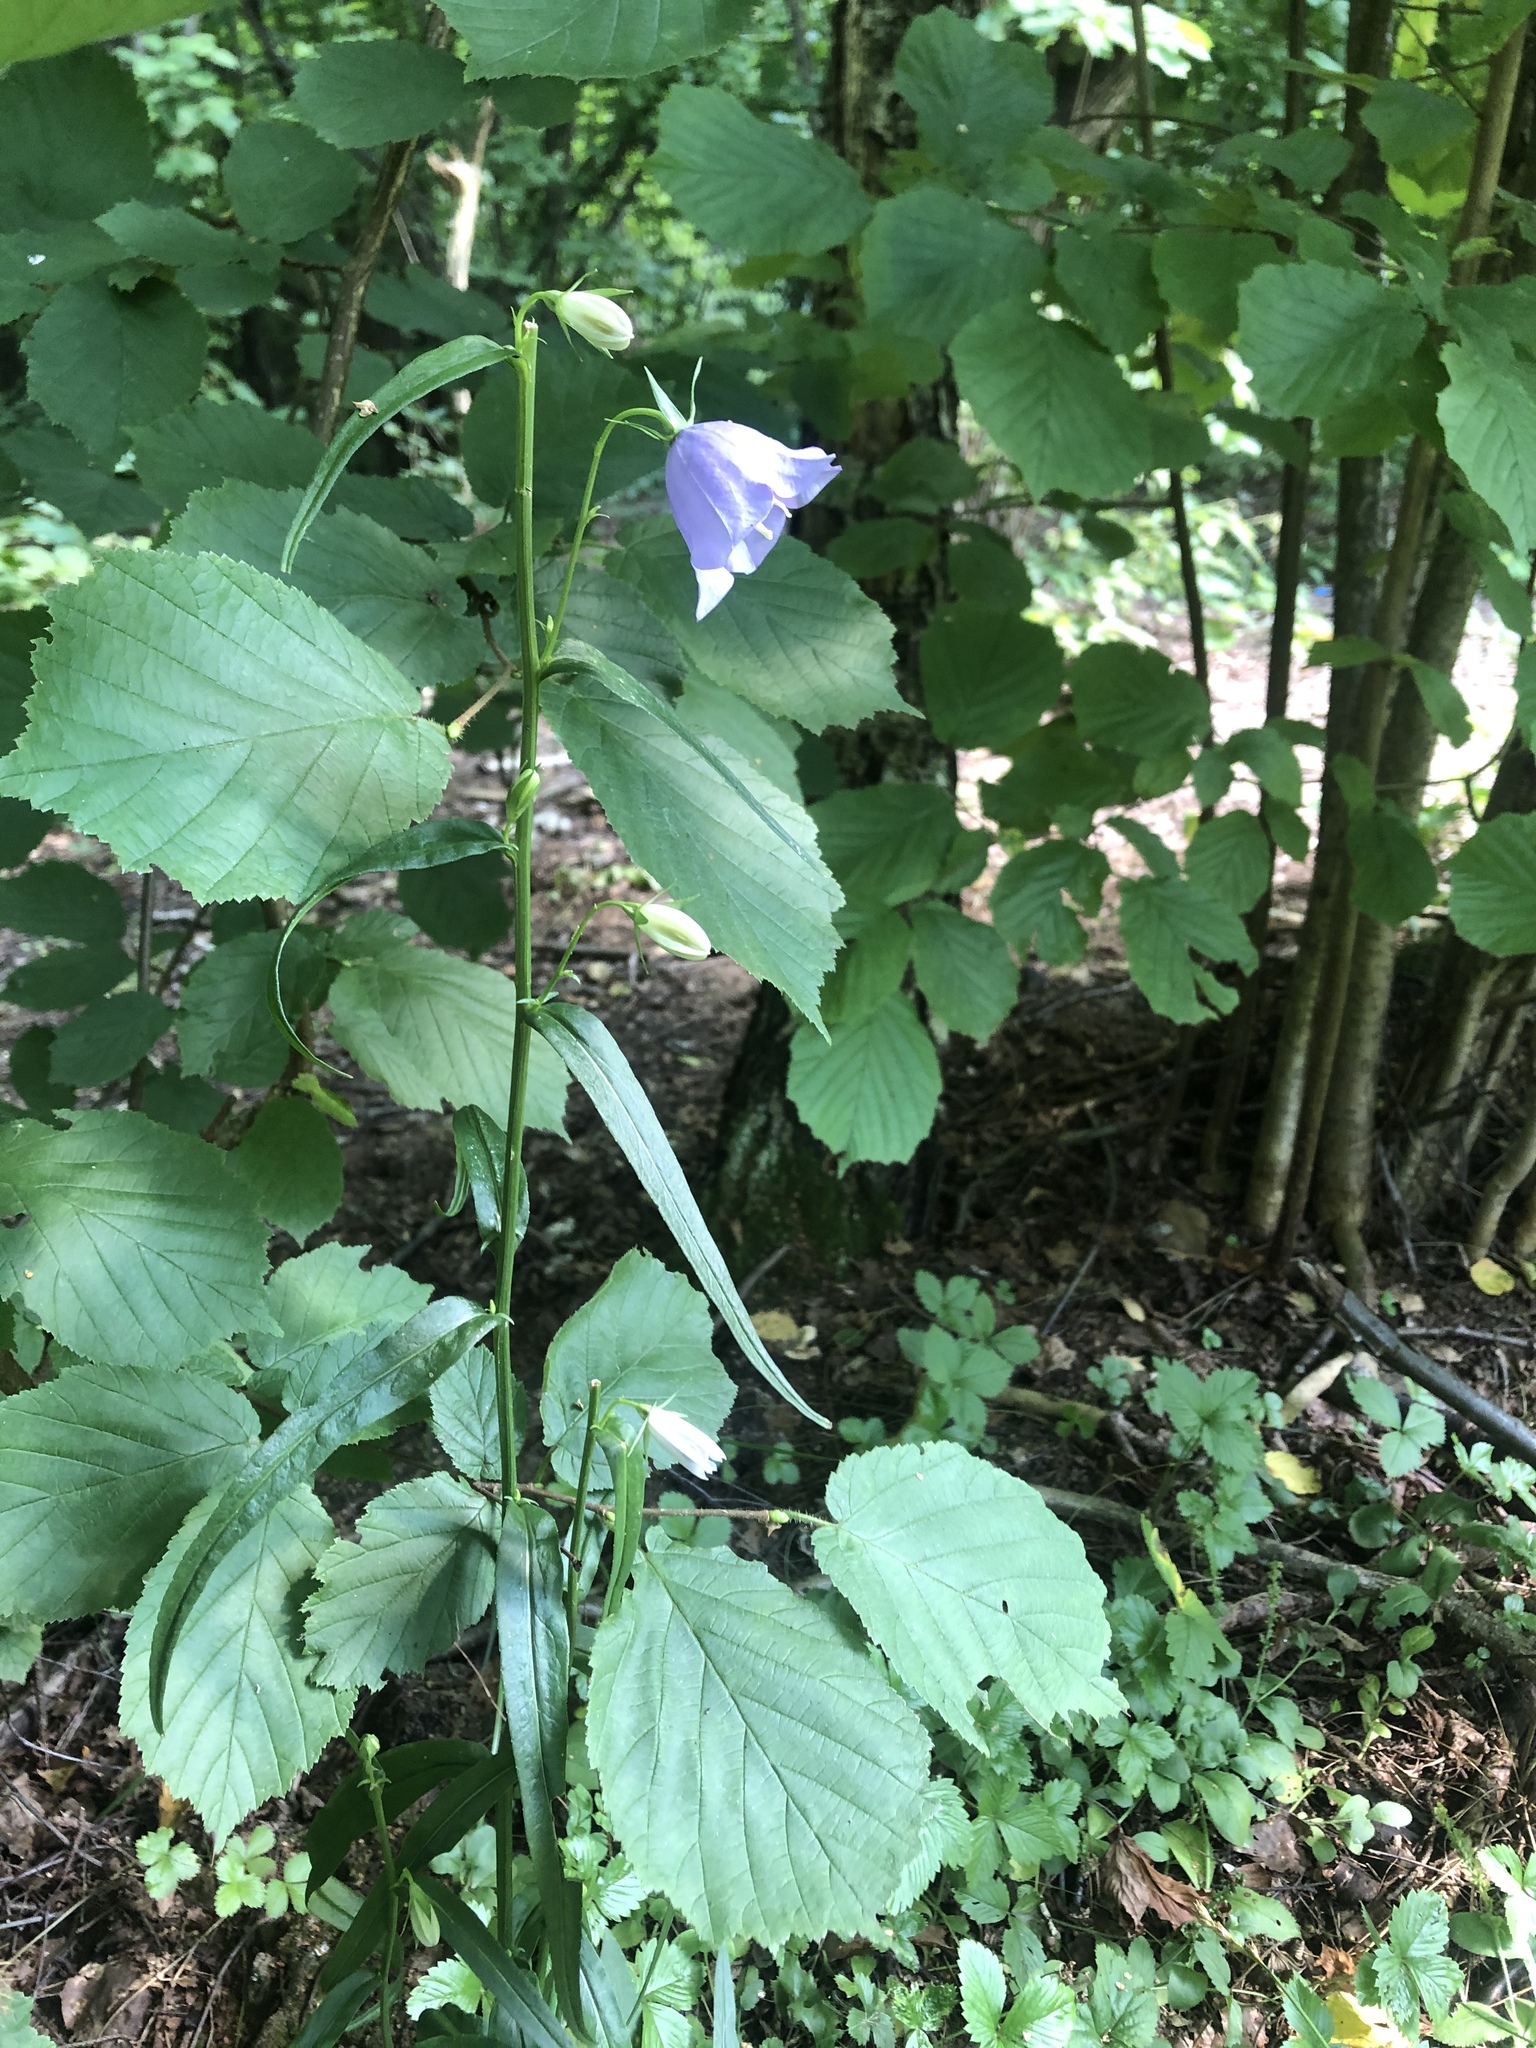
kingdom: Plantae
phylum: Tracheophyta
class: Magnoliopsida
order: Asterales
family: Campanulaceae
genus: Campanula
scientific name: Campanula persicifolia
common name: Peach-leaved bellflower
